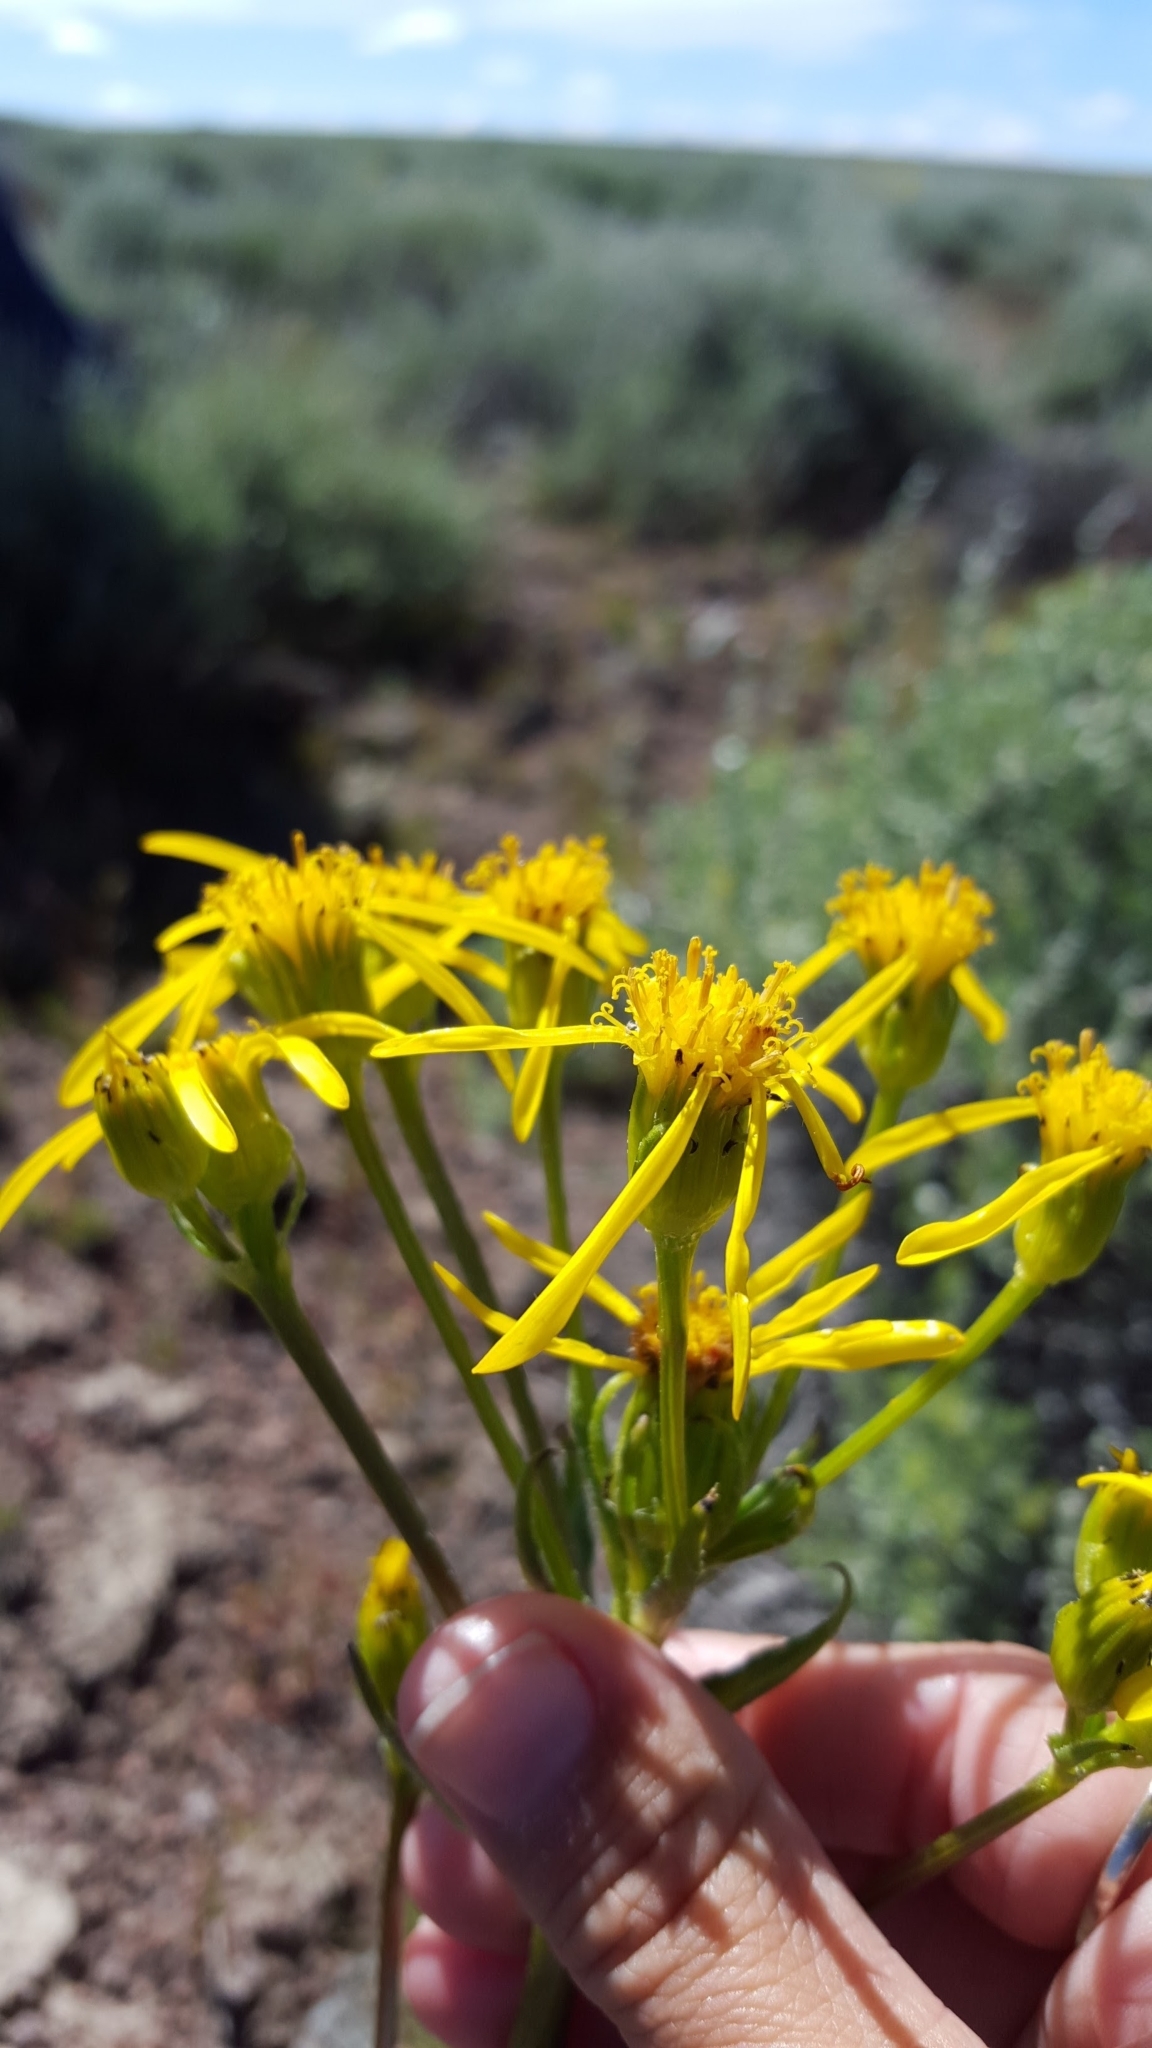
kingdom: Plantae
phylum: Tracheophyta
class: Magnoliopsida
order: Asterales
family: Asteraceae
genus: Senecio
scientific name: Senecio integerrimus
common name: Gaugeplant
